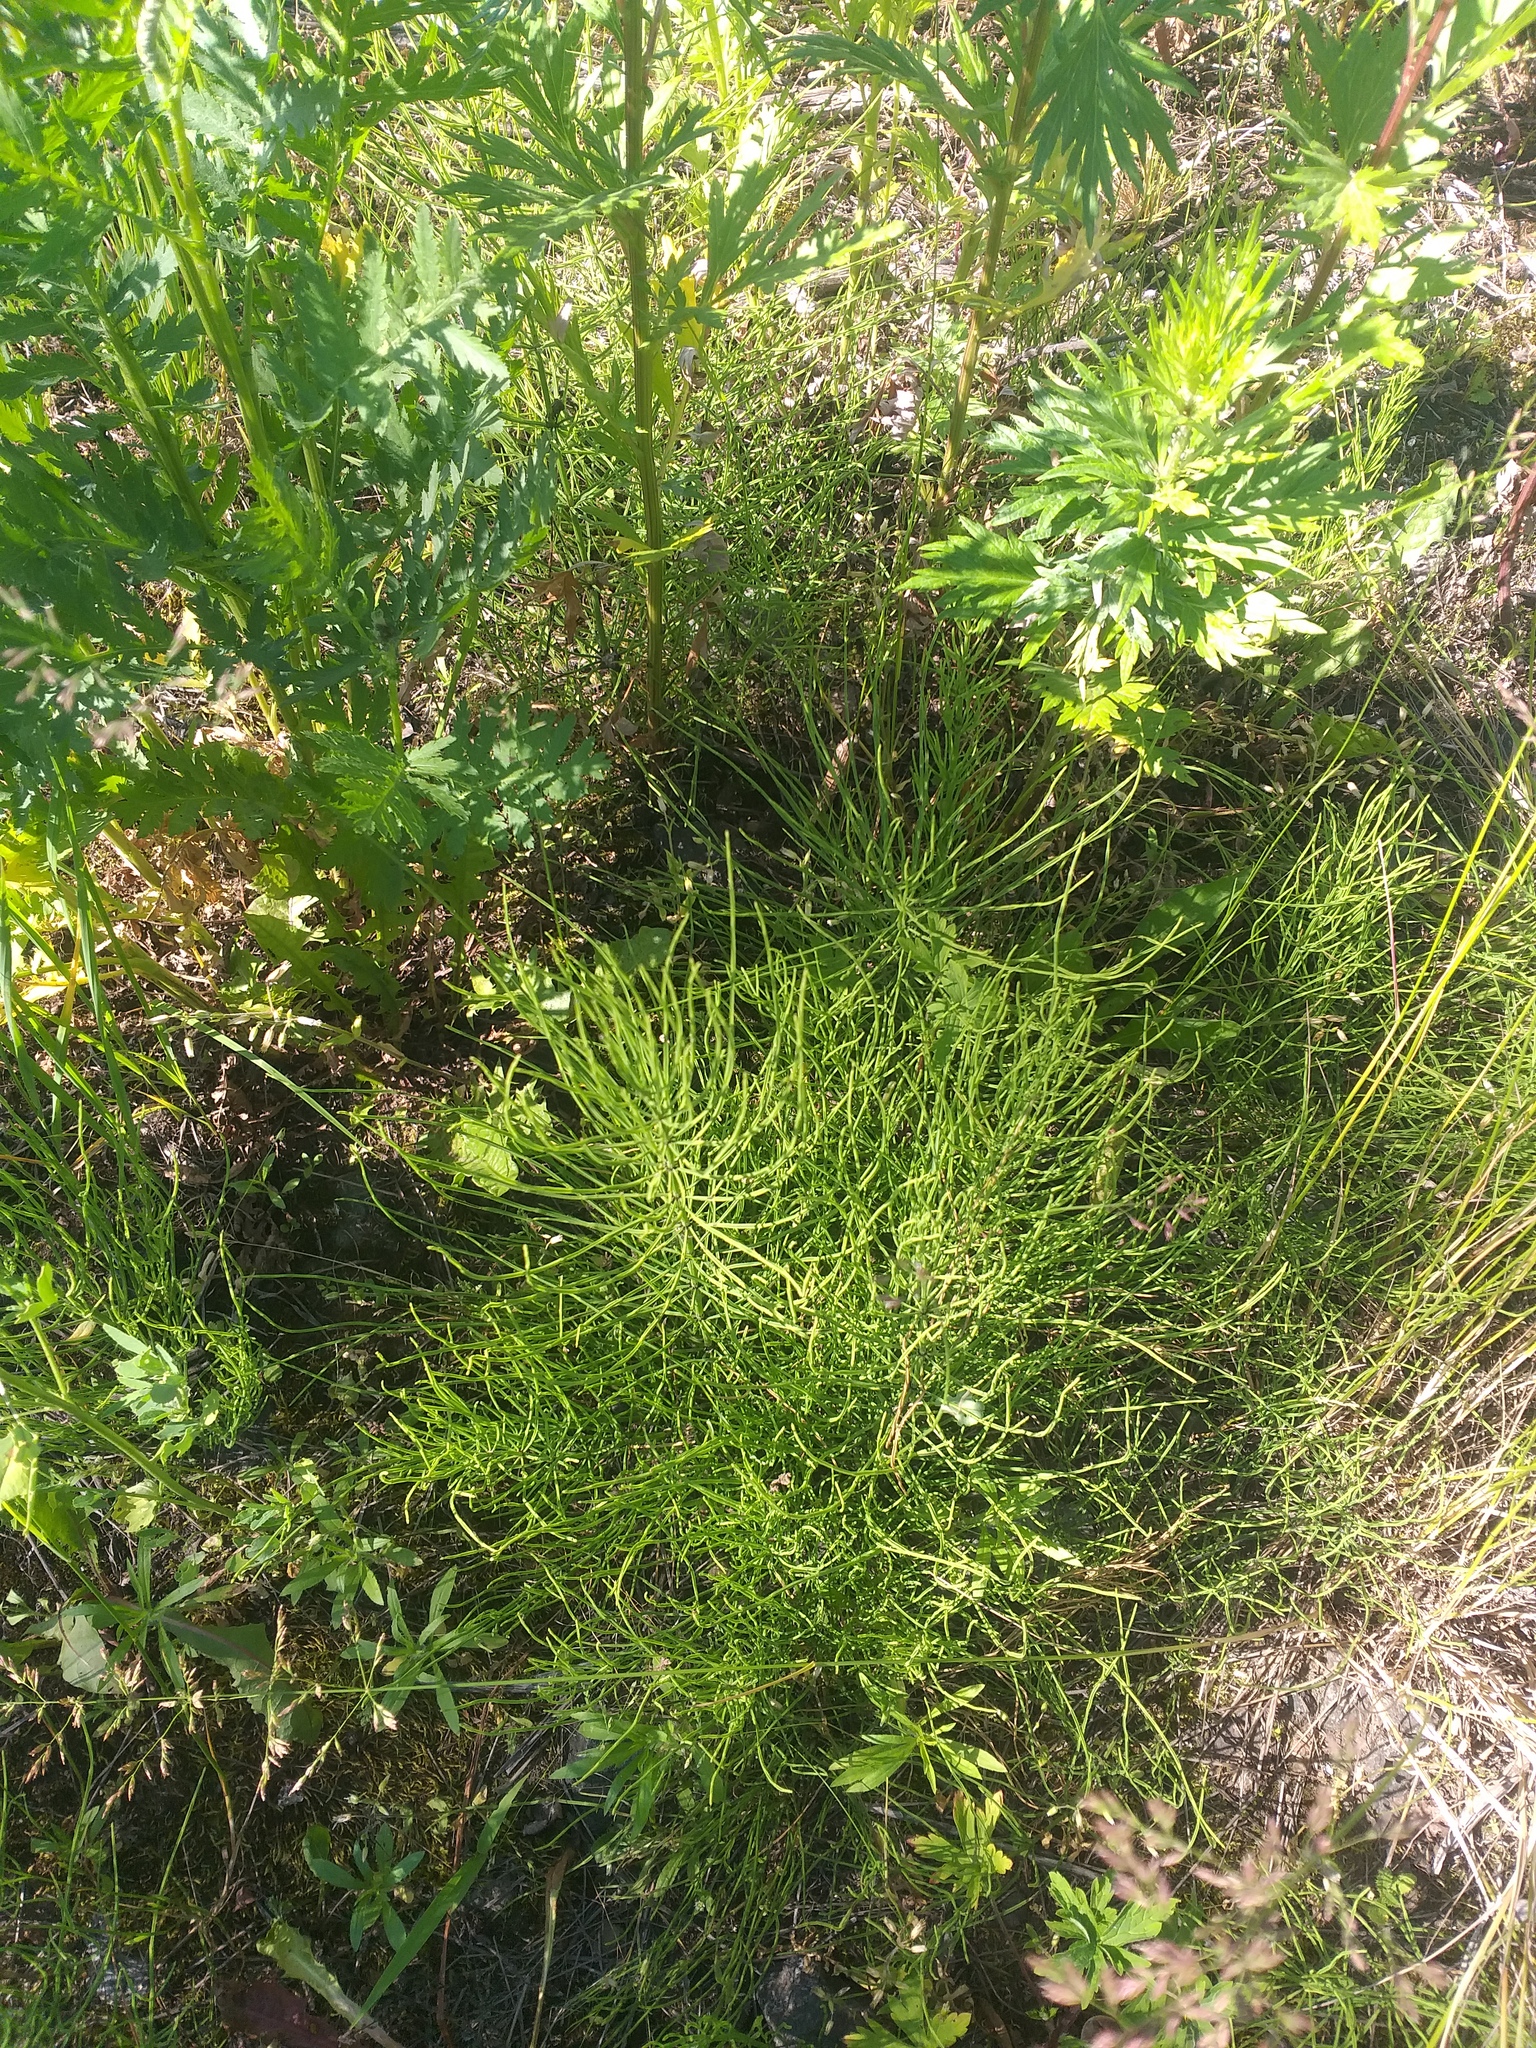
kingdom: Plantae
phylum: Tracheophyta
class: Polypodiopsida
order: Equisetales
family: Equisetaceae
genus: Equisetum
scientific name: Equisetum arvense
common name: Field horsetail
